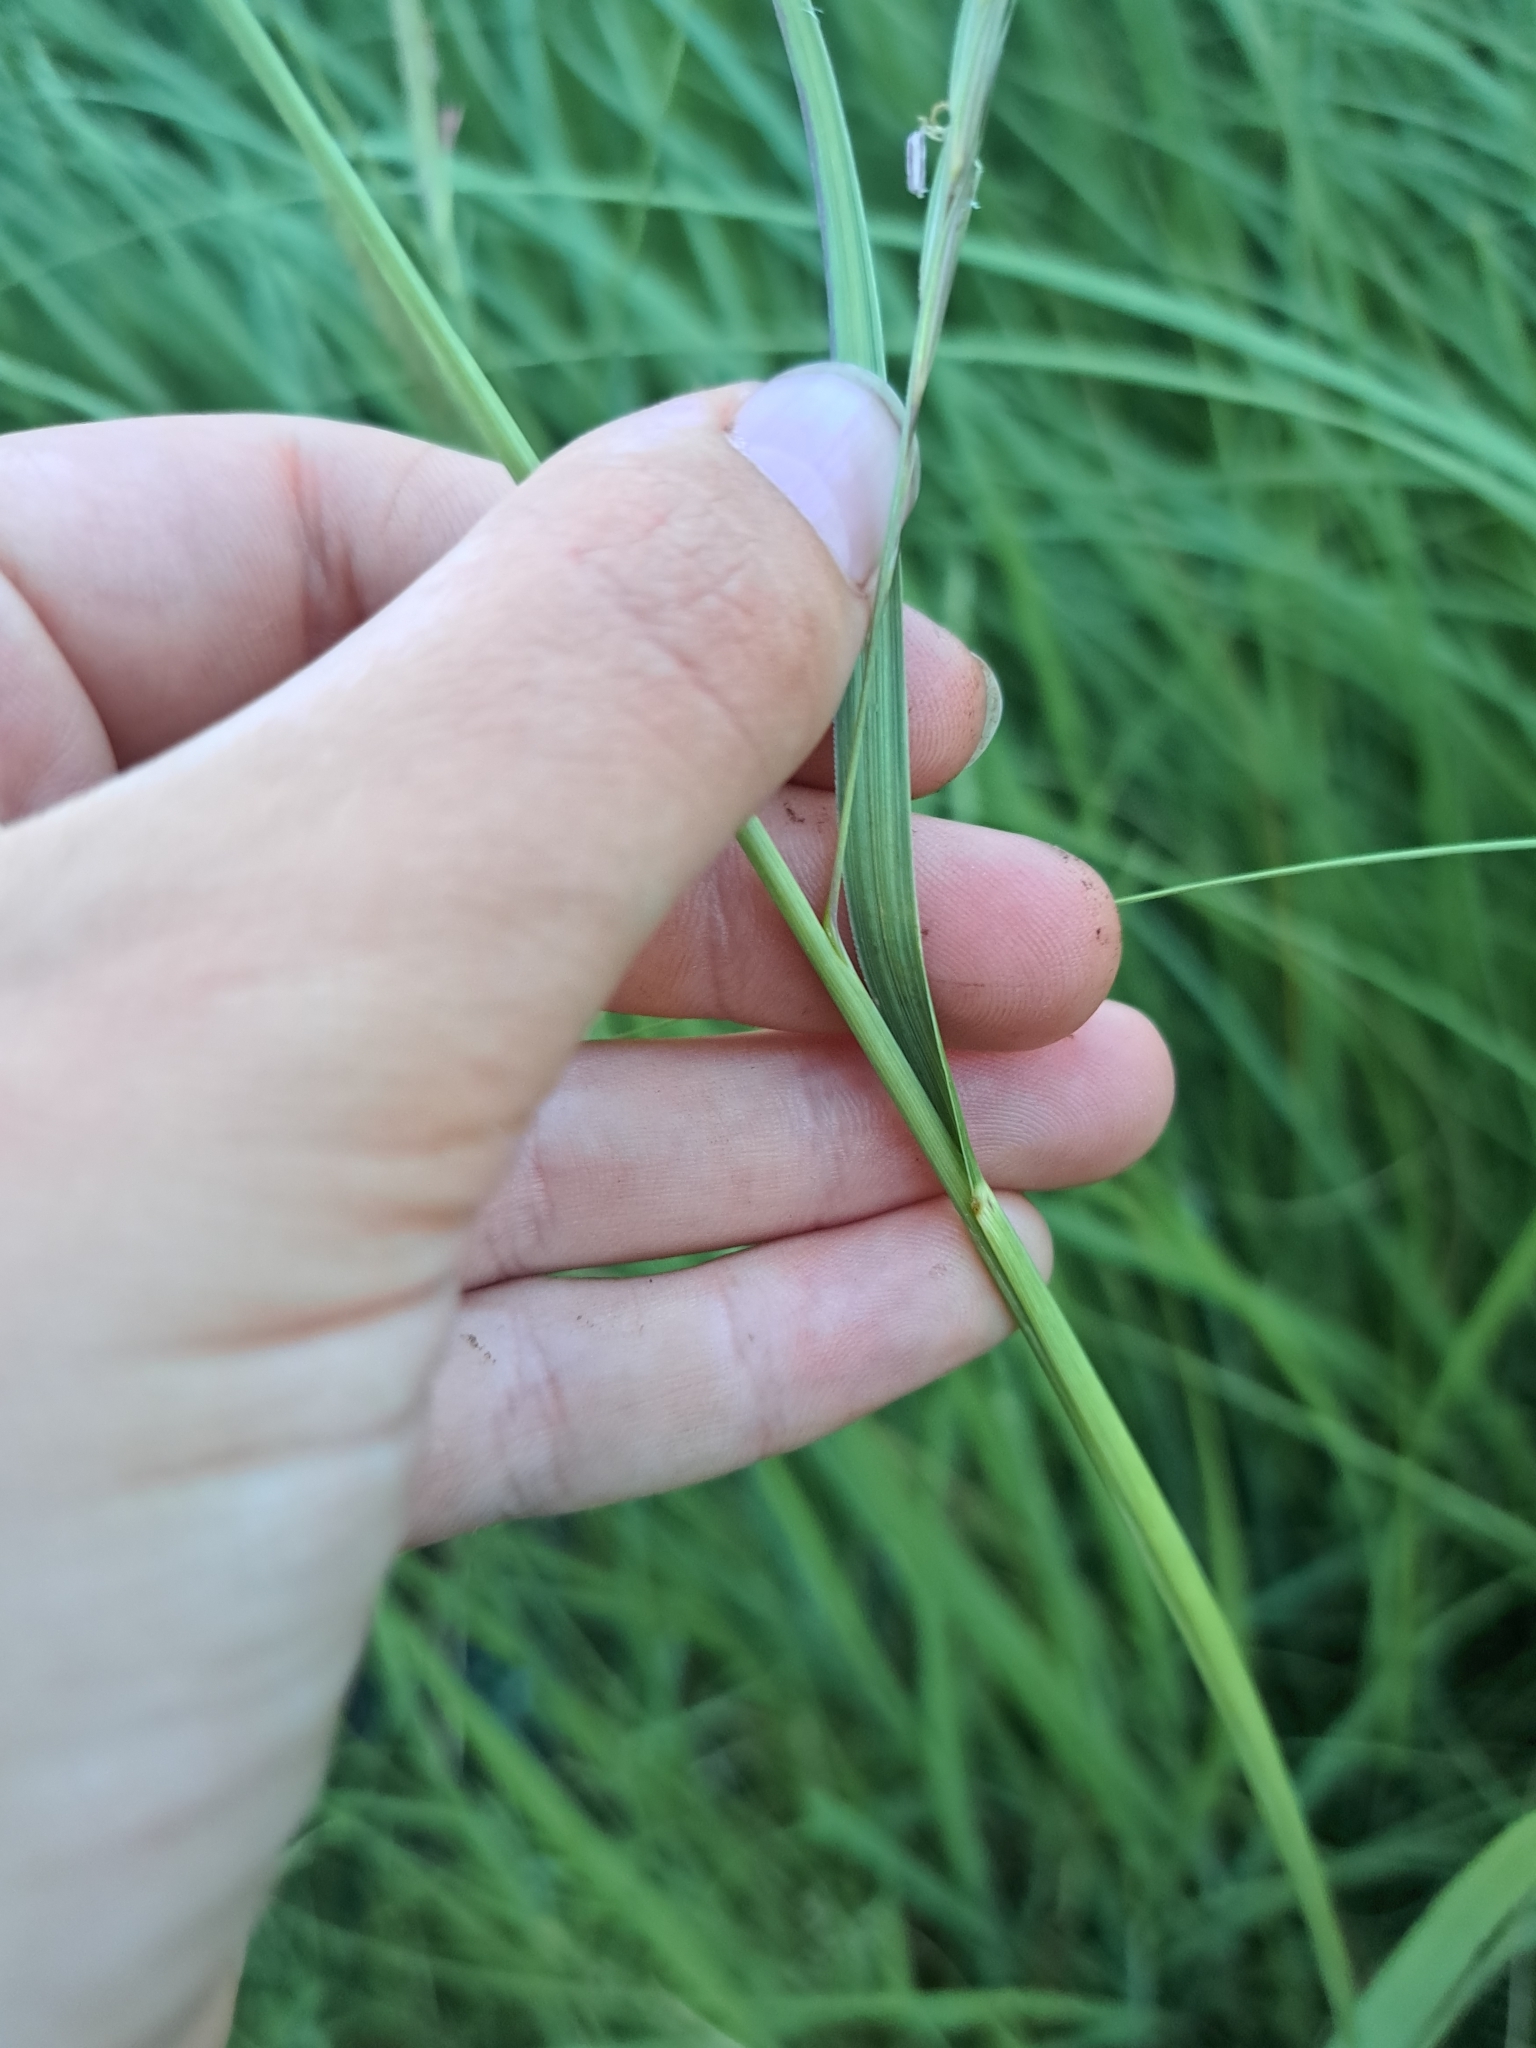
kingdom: Plantae
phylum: Tracheophyta
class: Liliopsida
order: Poales
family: Poaceae
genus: Sporobolus
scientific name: Sporobolus michauxianus
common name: Freshwater cordgrass
